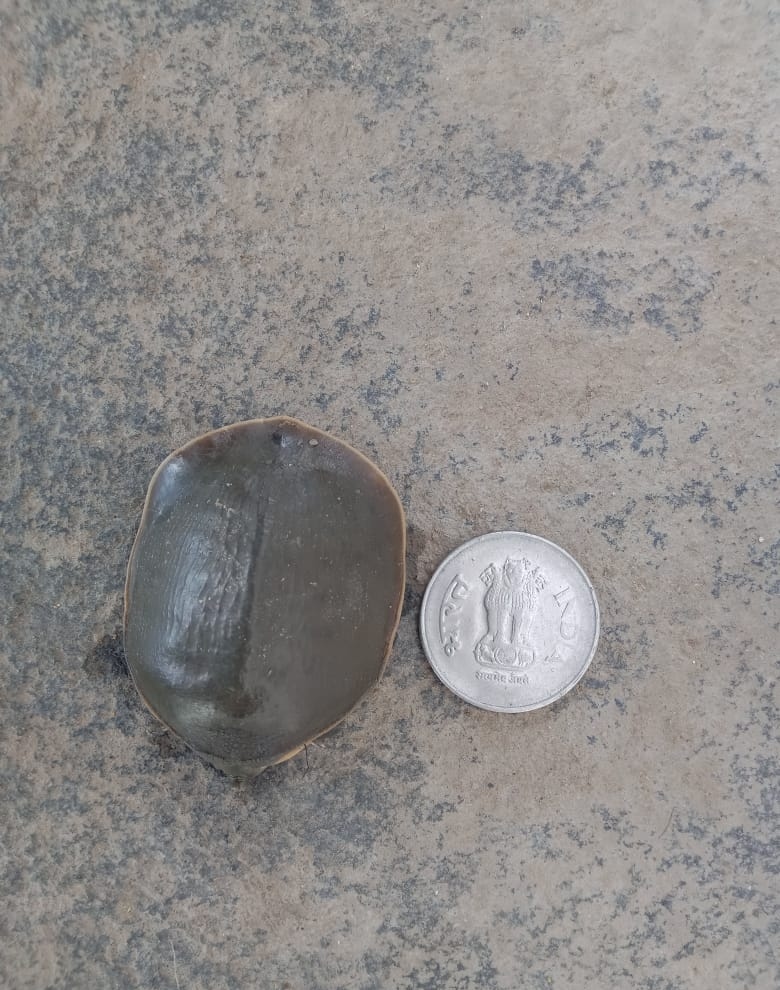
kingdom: Animalia
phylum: Chordata
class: Testudines
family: Trionychidae
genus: Lissemys
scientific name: Lissemys punctata
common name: Indian flap-shelled turtle
